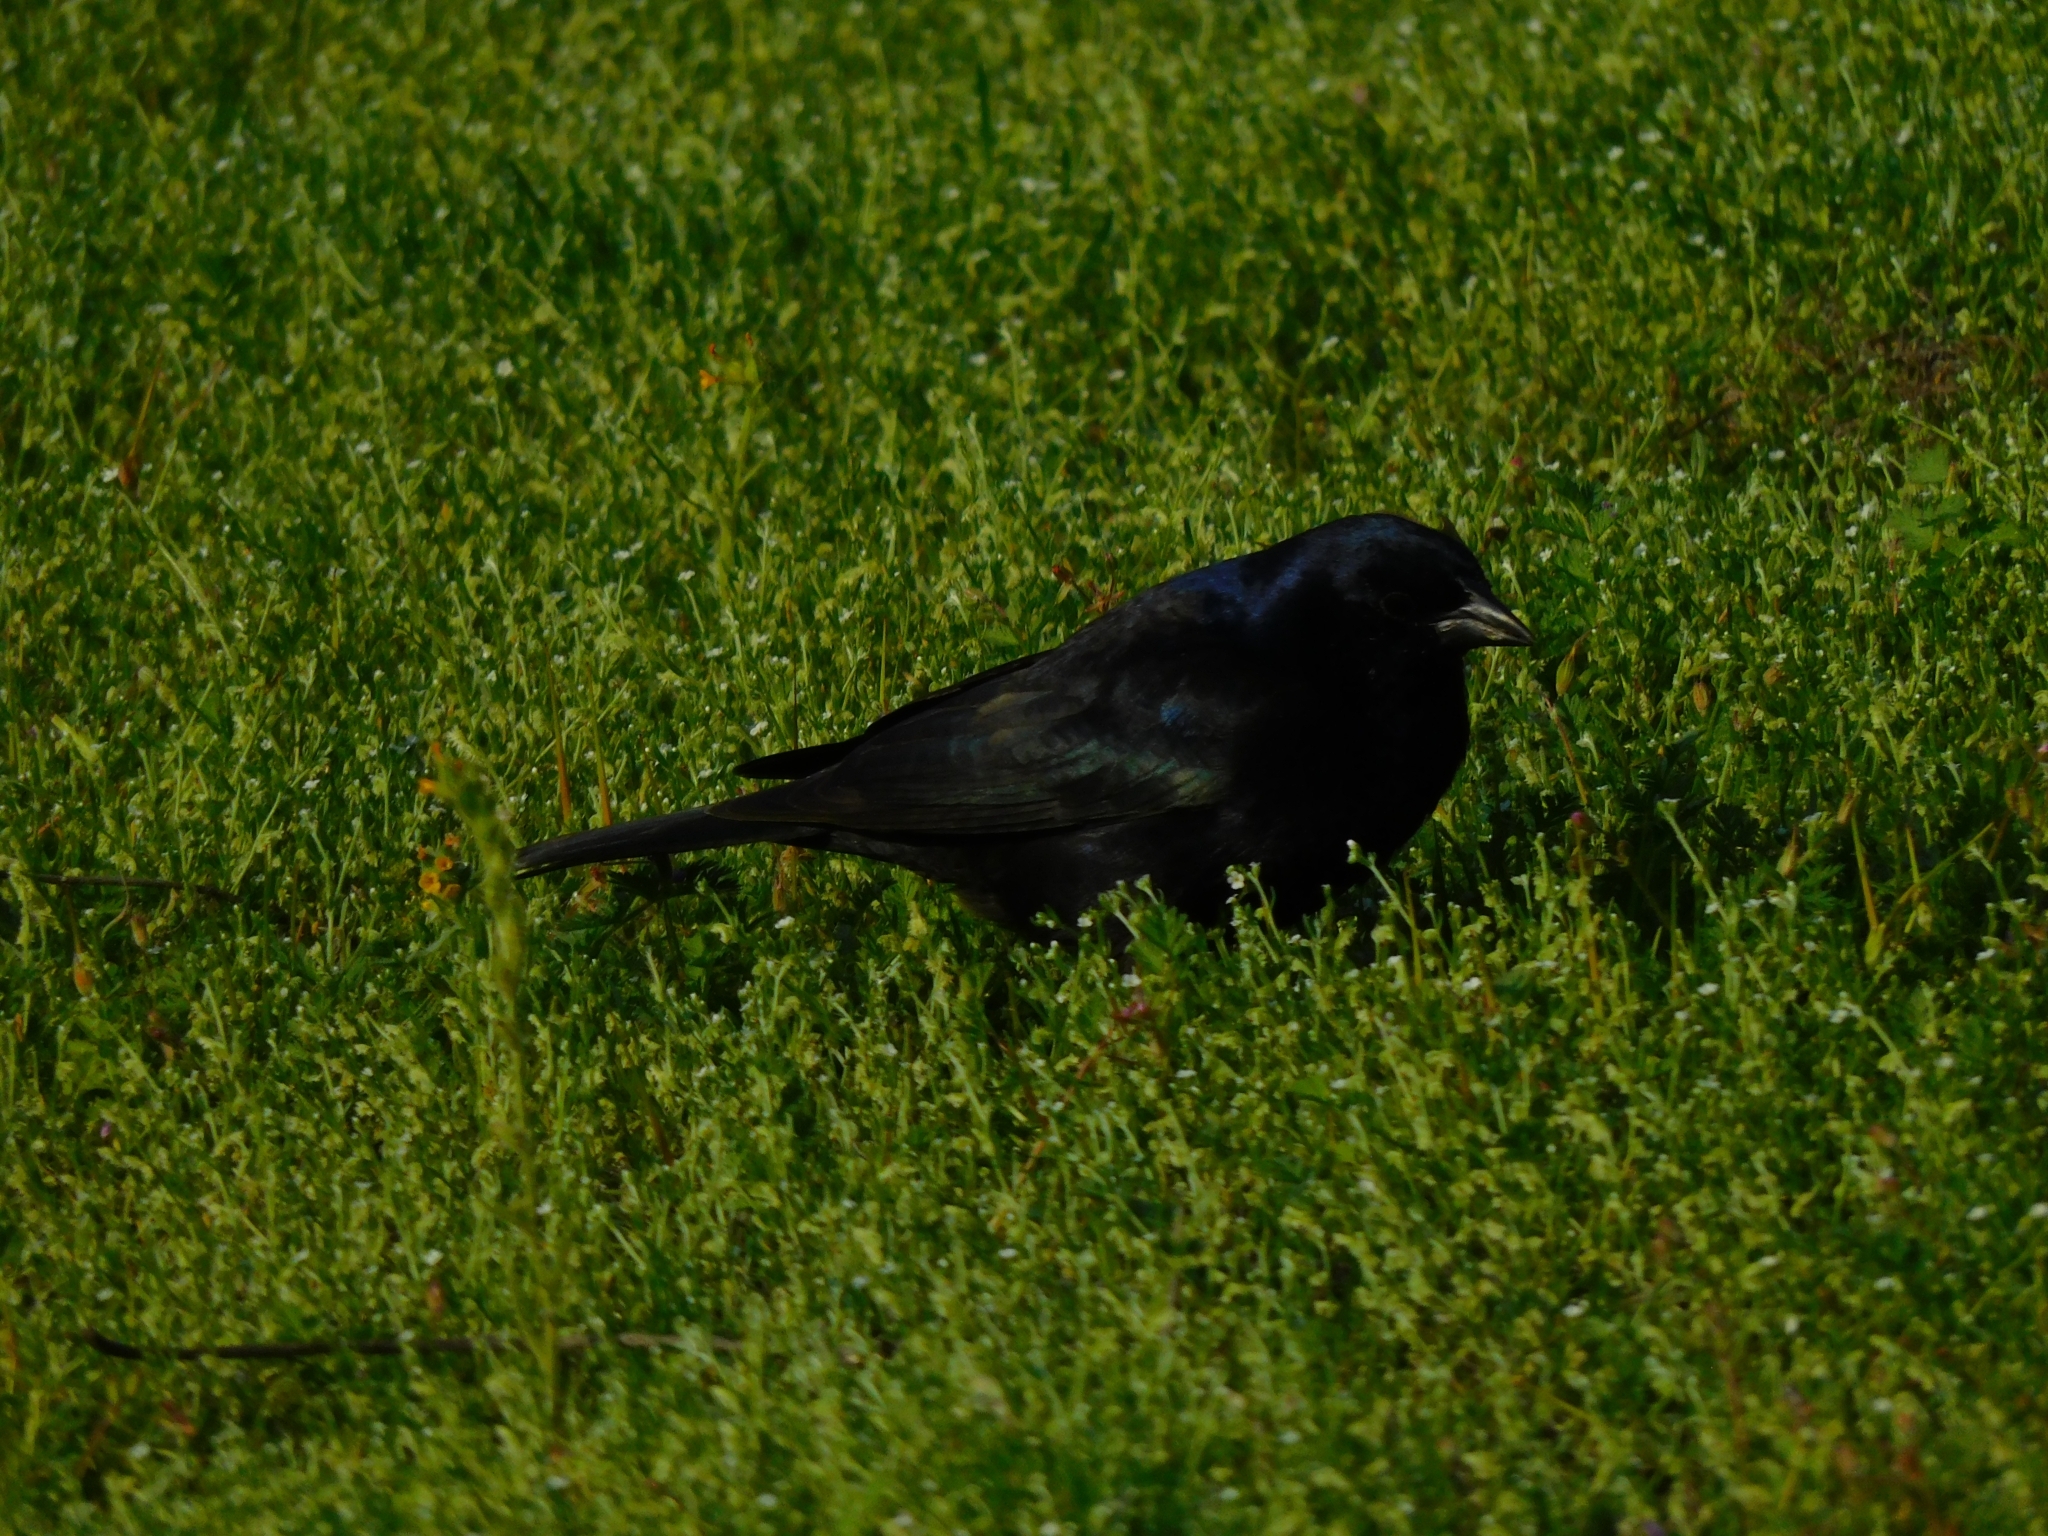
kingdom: Animalia
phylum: Chordata
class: Aves
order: Passeriformes
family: Icteridae
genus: Molothrus
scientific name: Molothrus bonariensis
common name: Shiny cowbird
